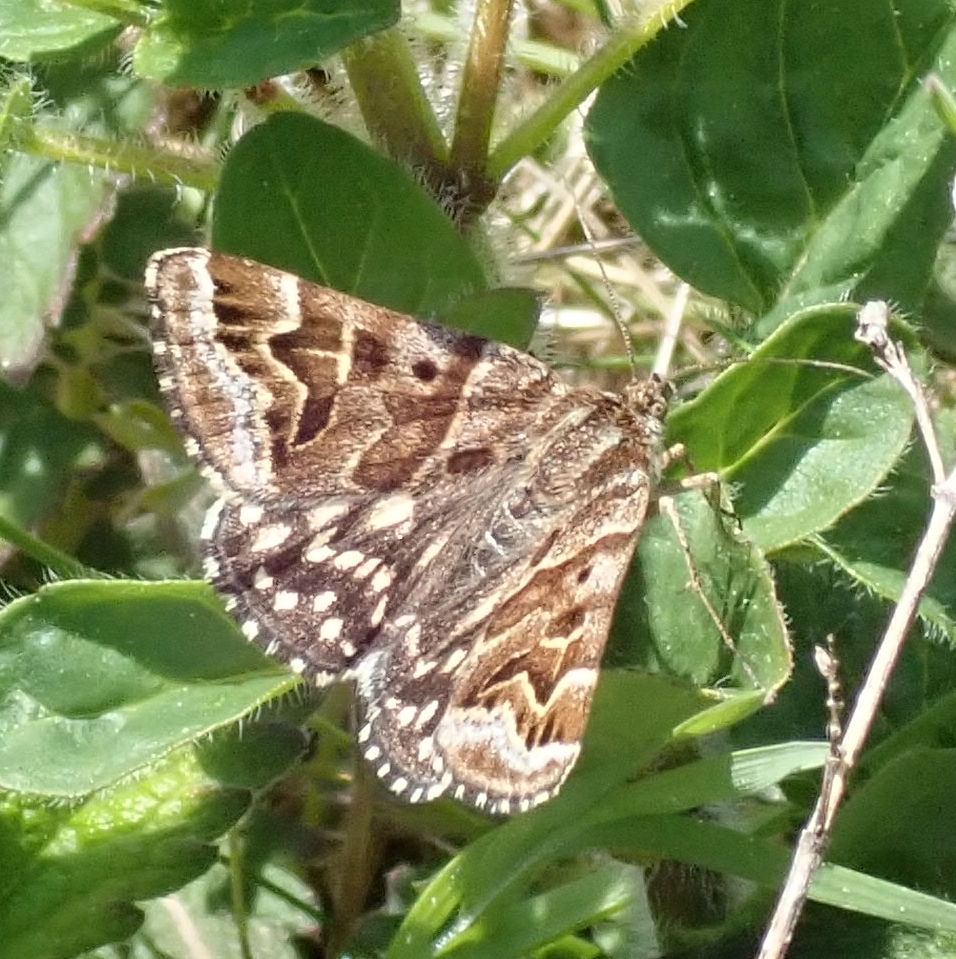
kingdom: Animalia
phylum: Arthropoda
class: Insecta
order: Lepidoptera
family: Erebidae
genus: Callistege
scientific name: Callistege mi
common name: Mother shipton
